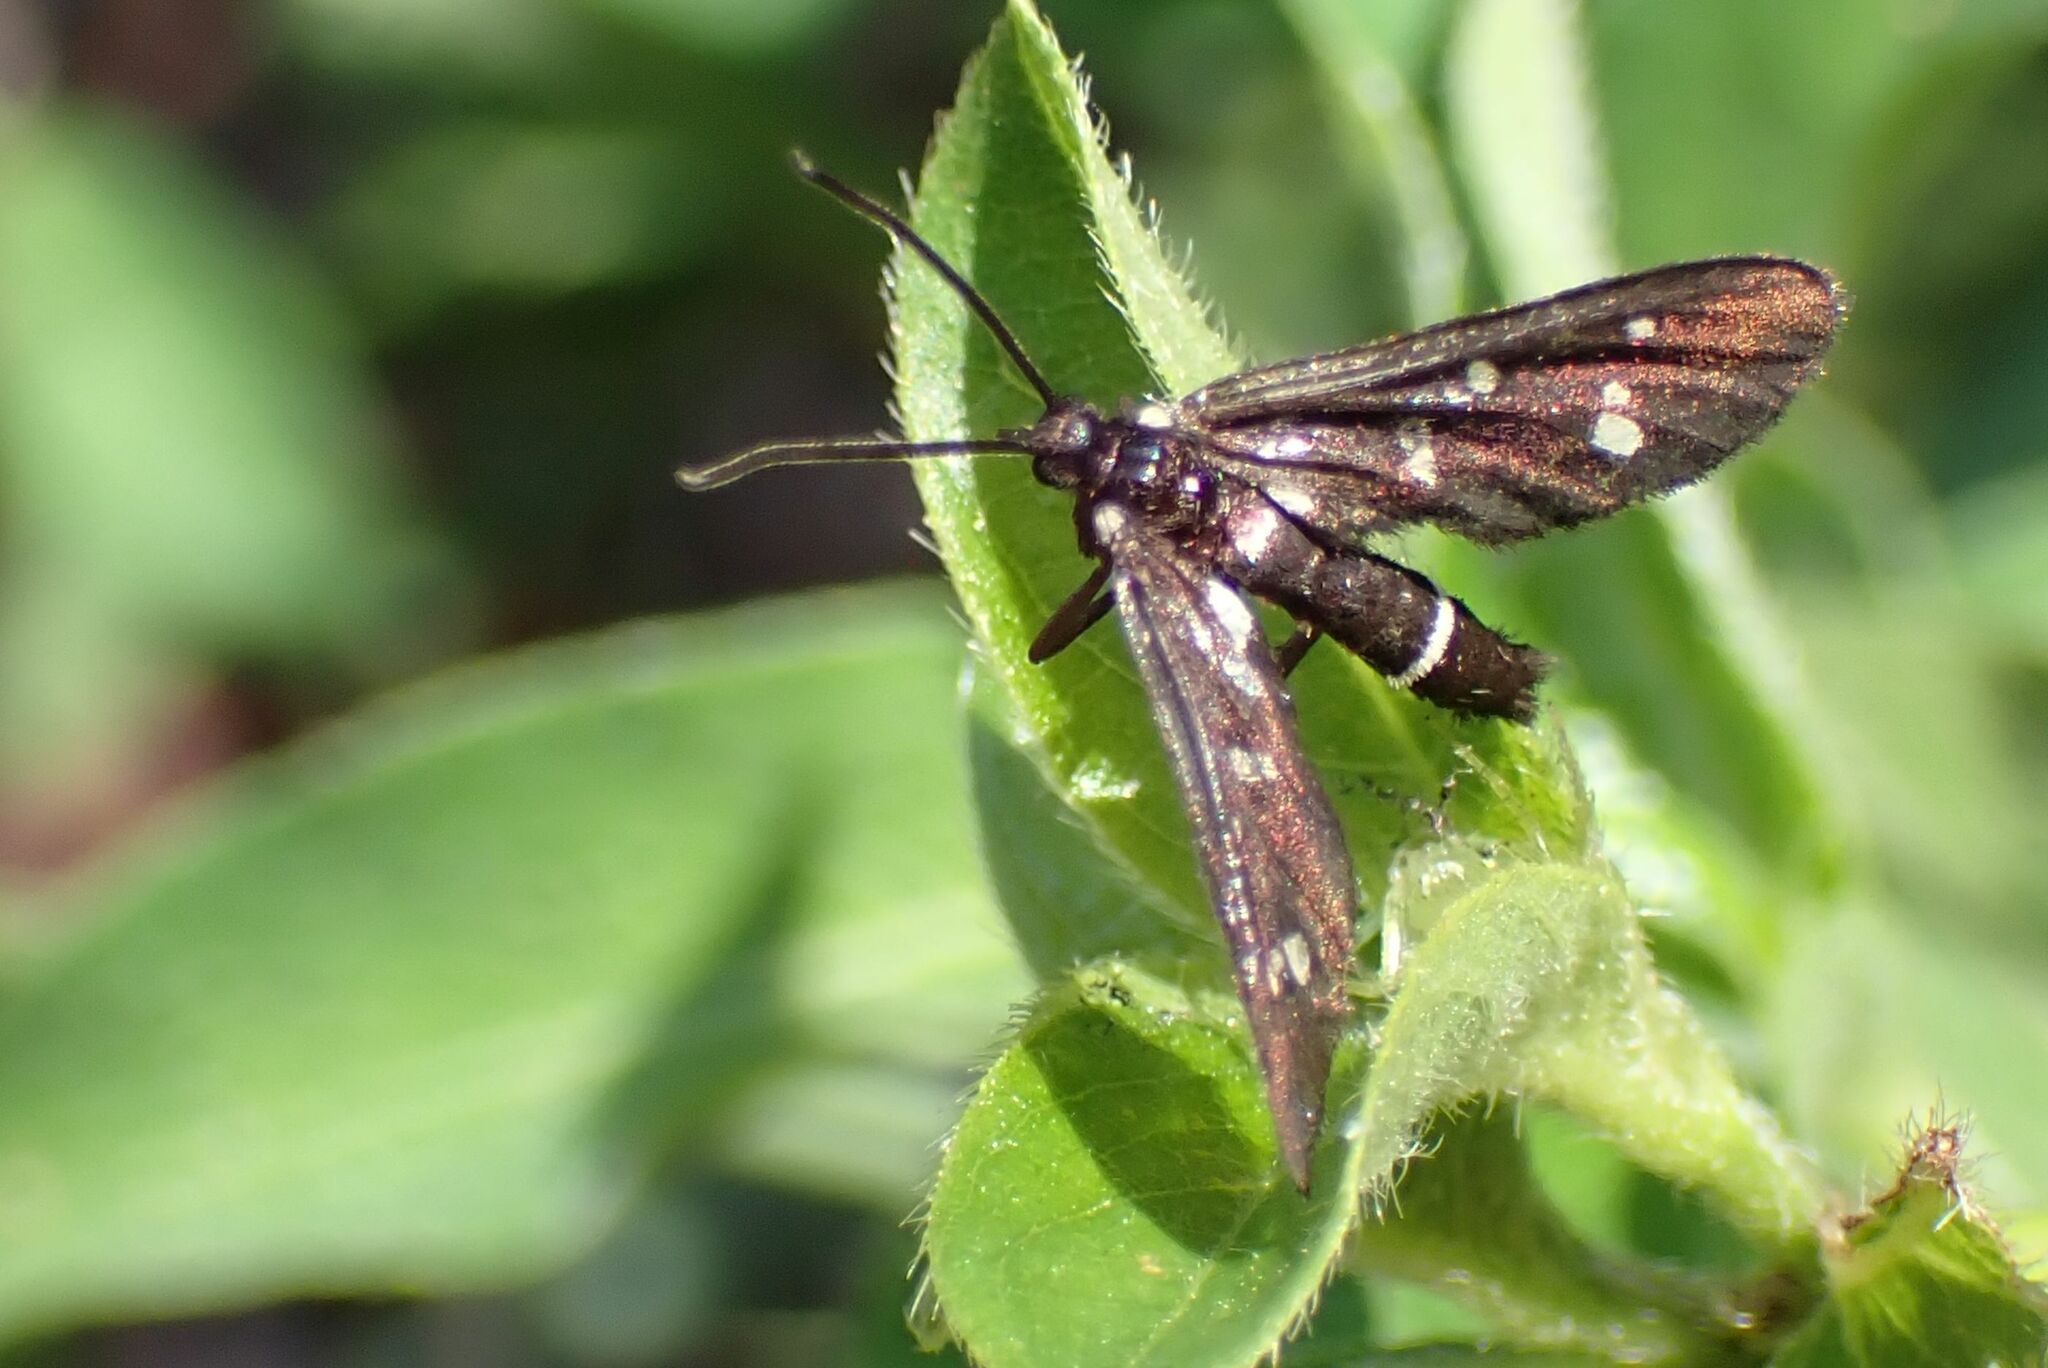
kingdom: Animalia
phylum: Arthropoda
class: Insecta
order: Lepidoptera
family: Erebidae
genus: Amata
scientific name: Amata rendalli
